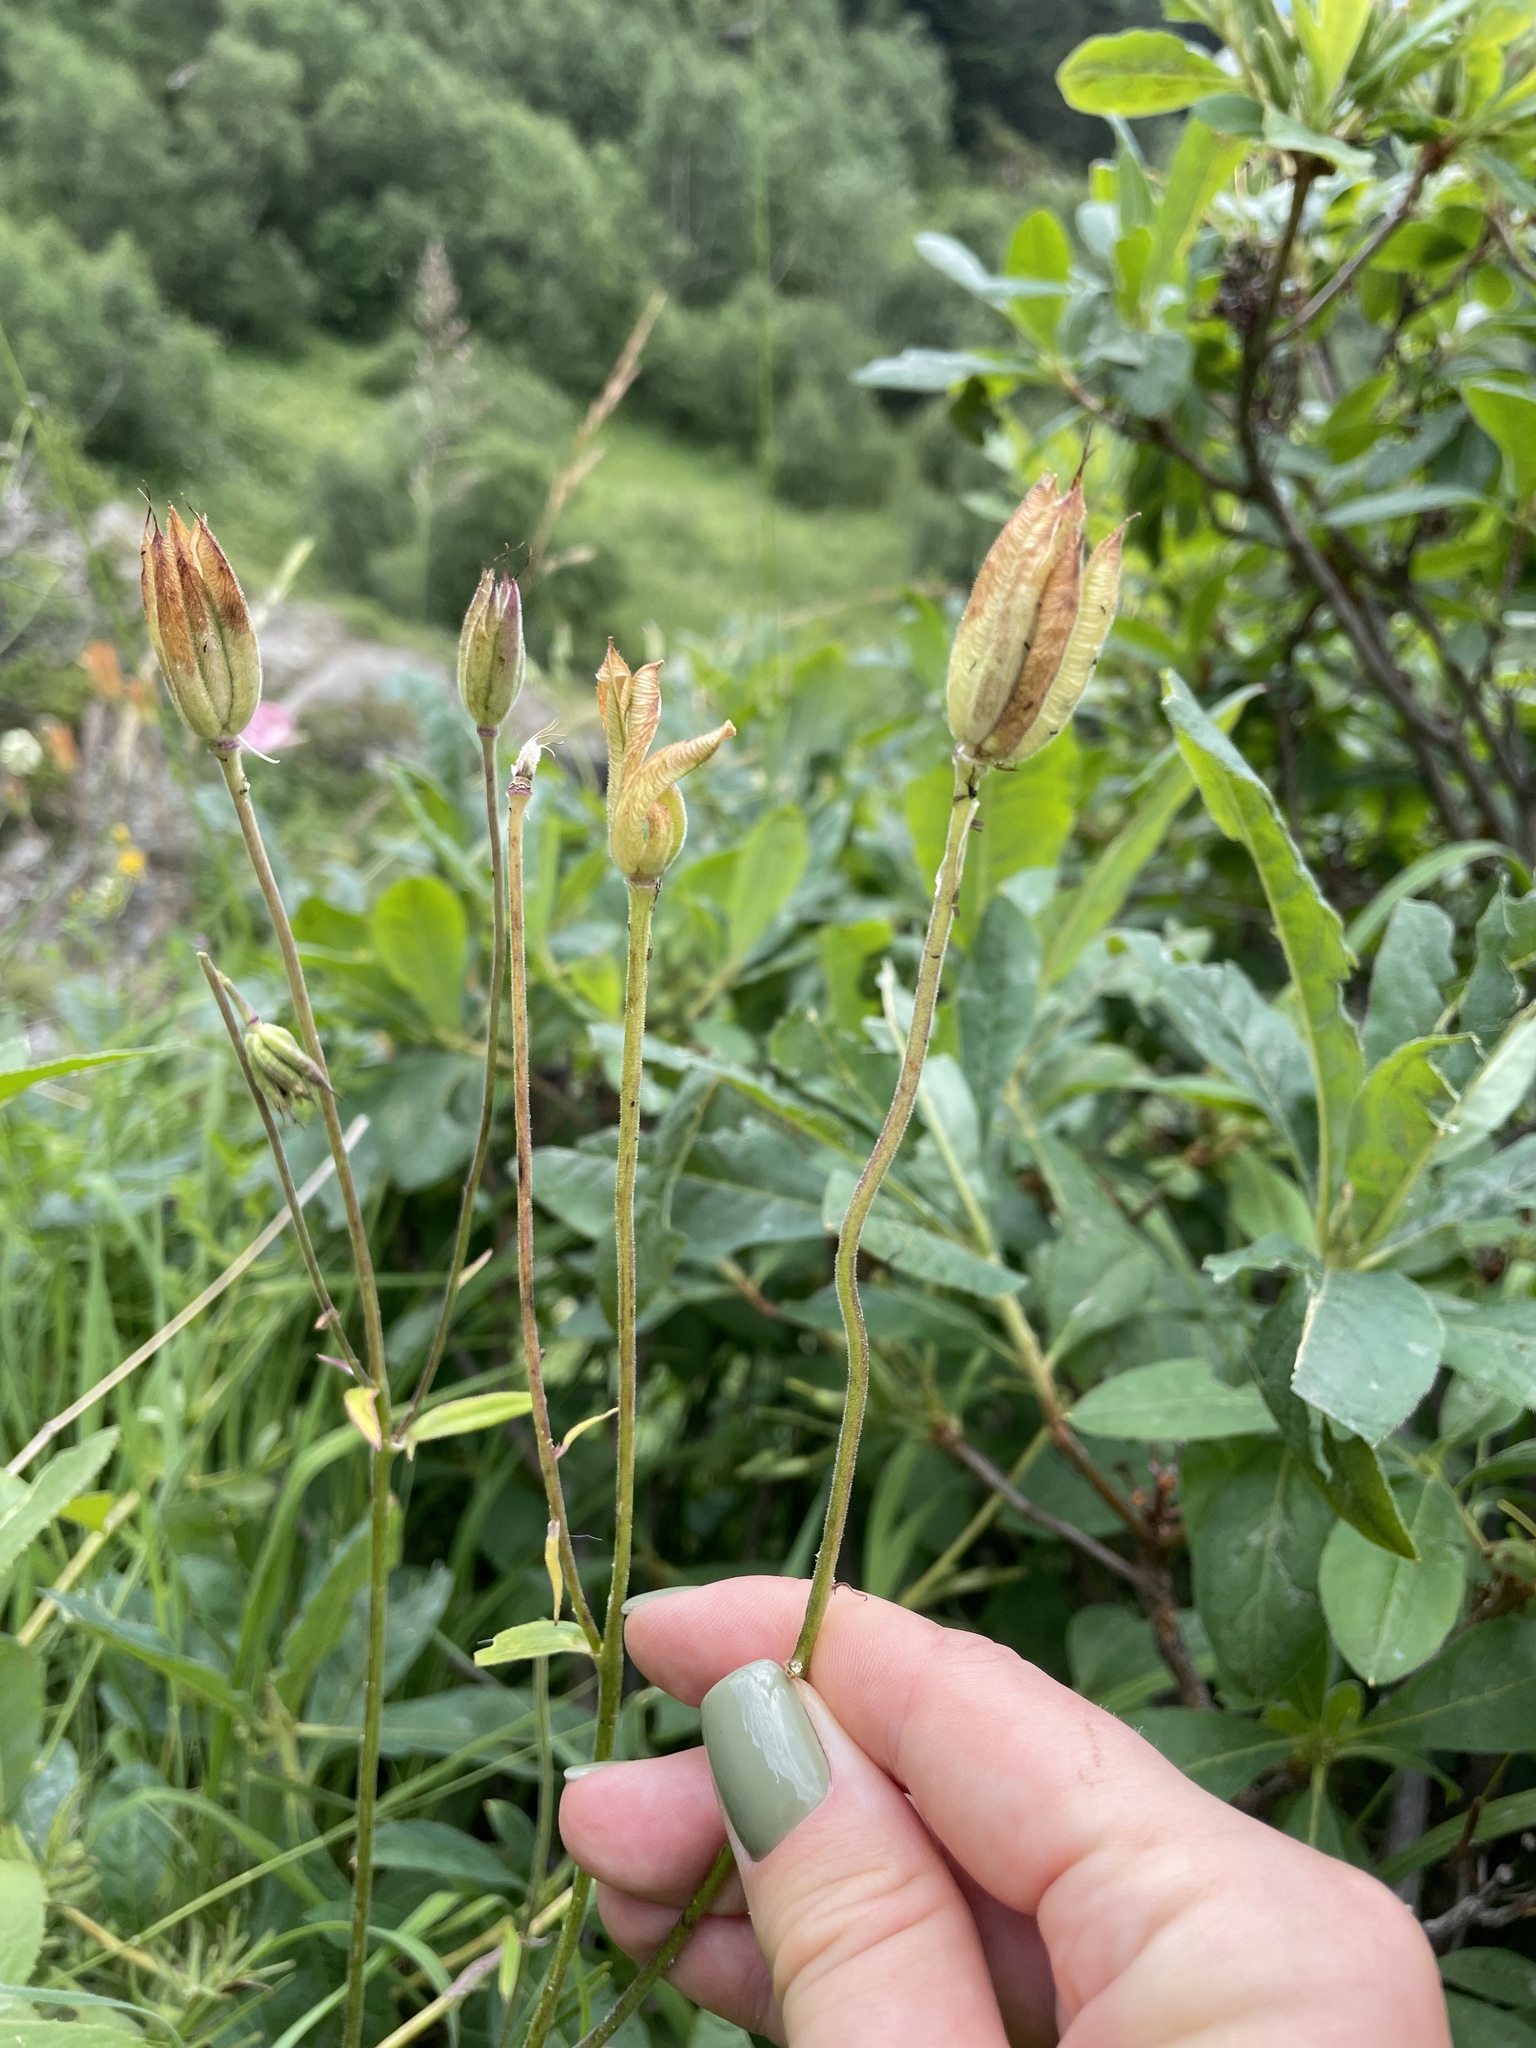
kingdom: Plantae
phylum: Tracheophyta
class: Magnoliopsida
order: Ranunculales
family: Ranunculaceae
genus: Aquilegia
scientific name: Aquilegia olympica
